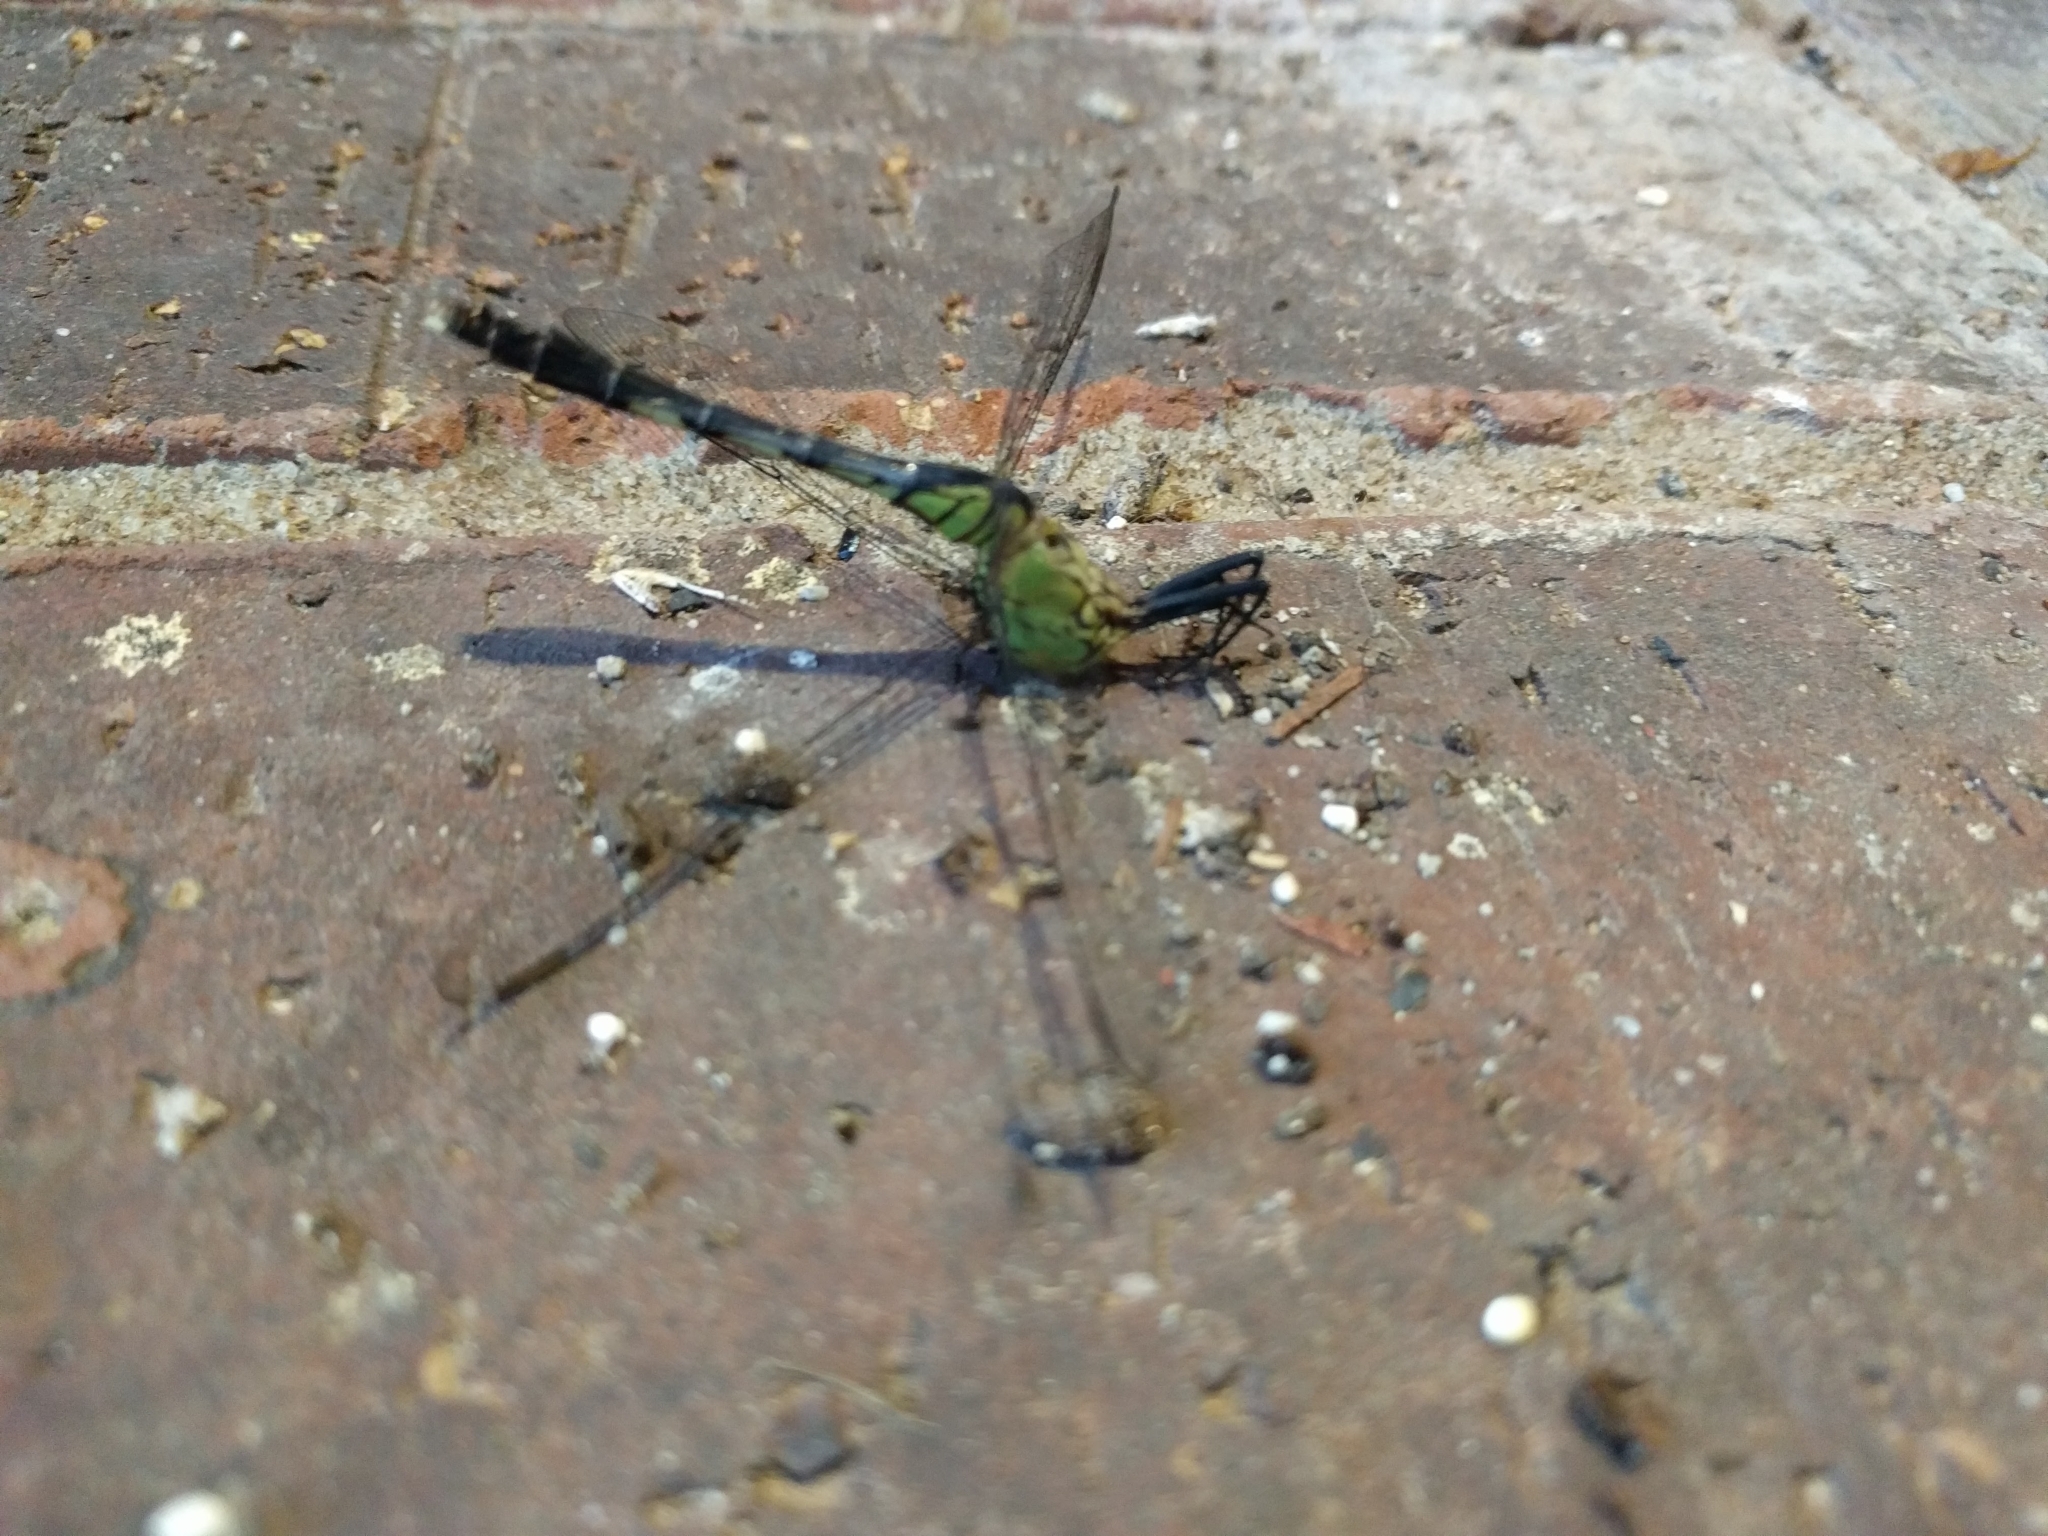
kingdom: Animalia
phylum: Arthropoda
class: Insecta
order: Odonata
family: Libellulidae
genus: Erythemis
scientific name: Erythemis simplicicollis
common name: Eastern pondhawk
